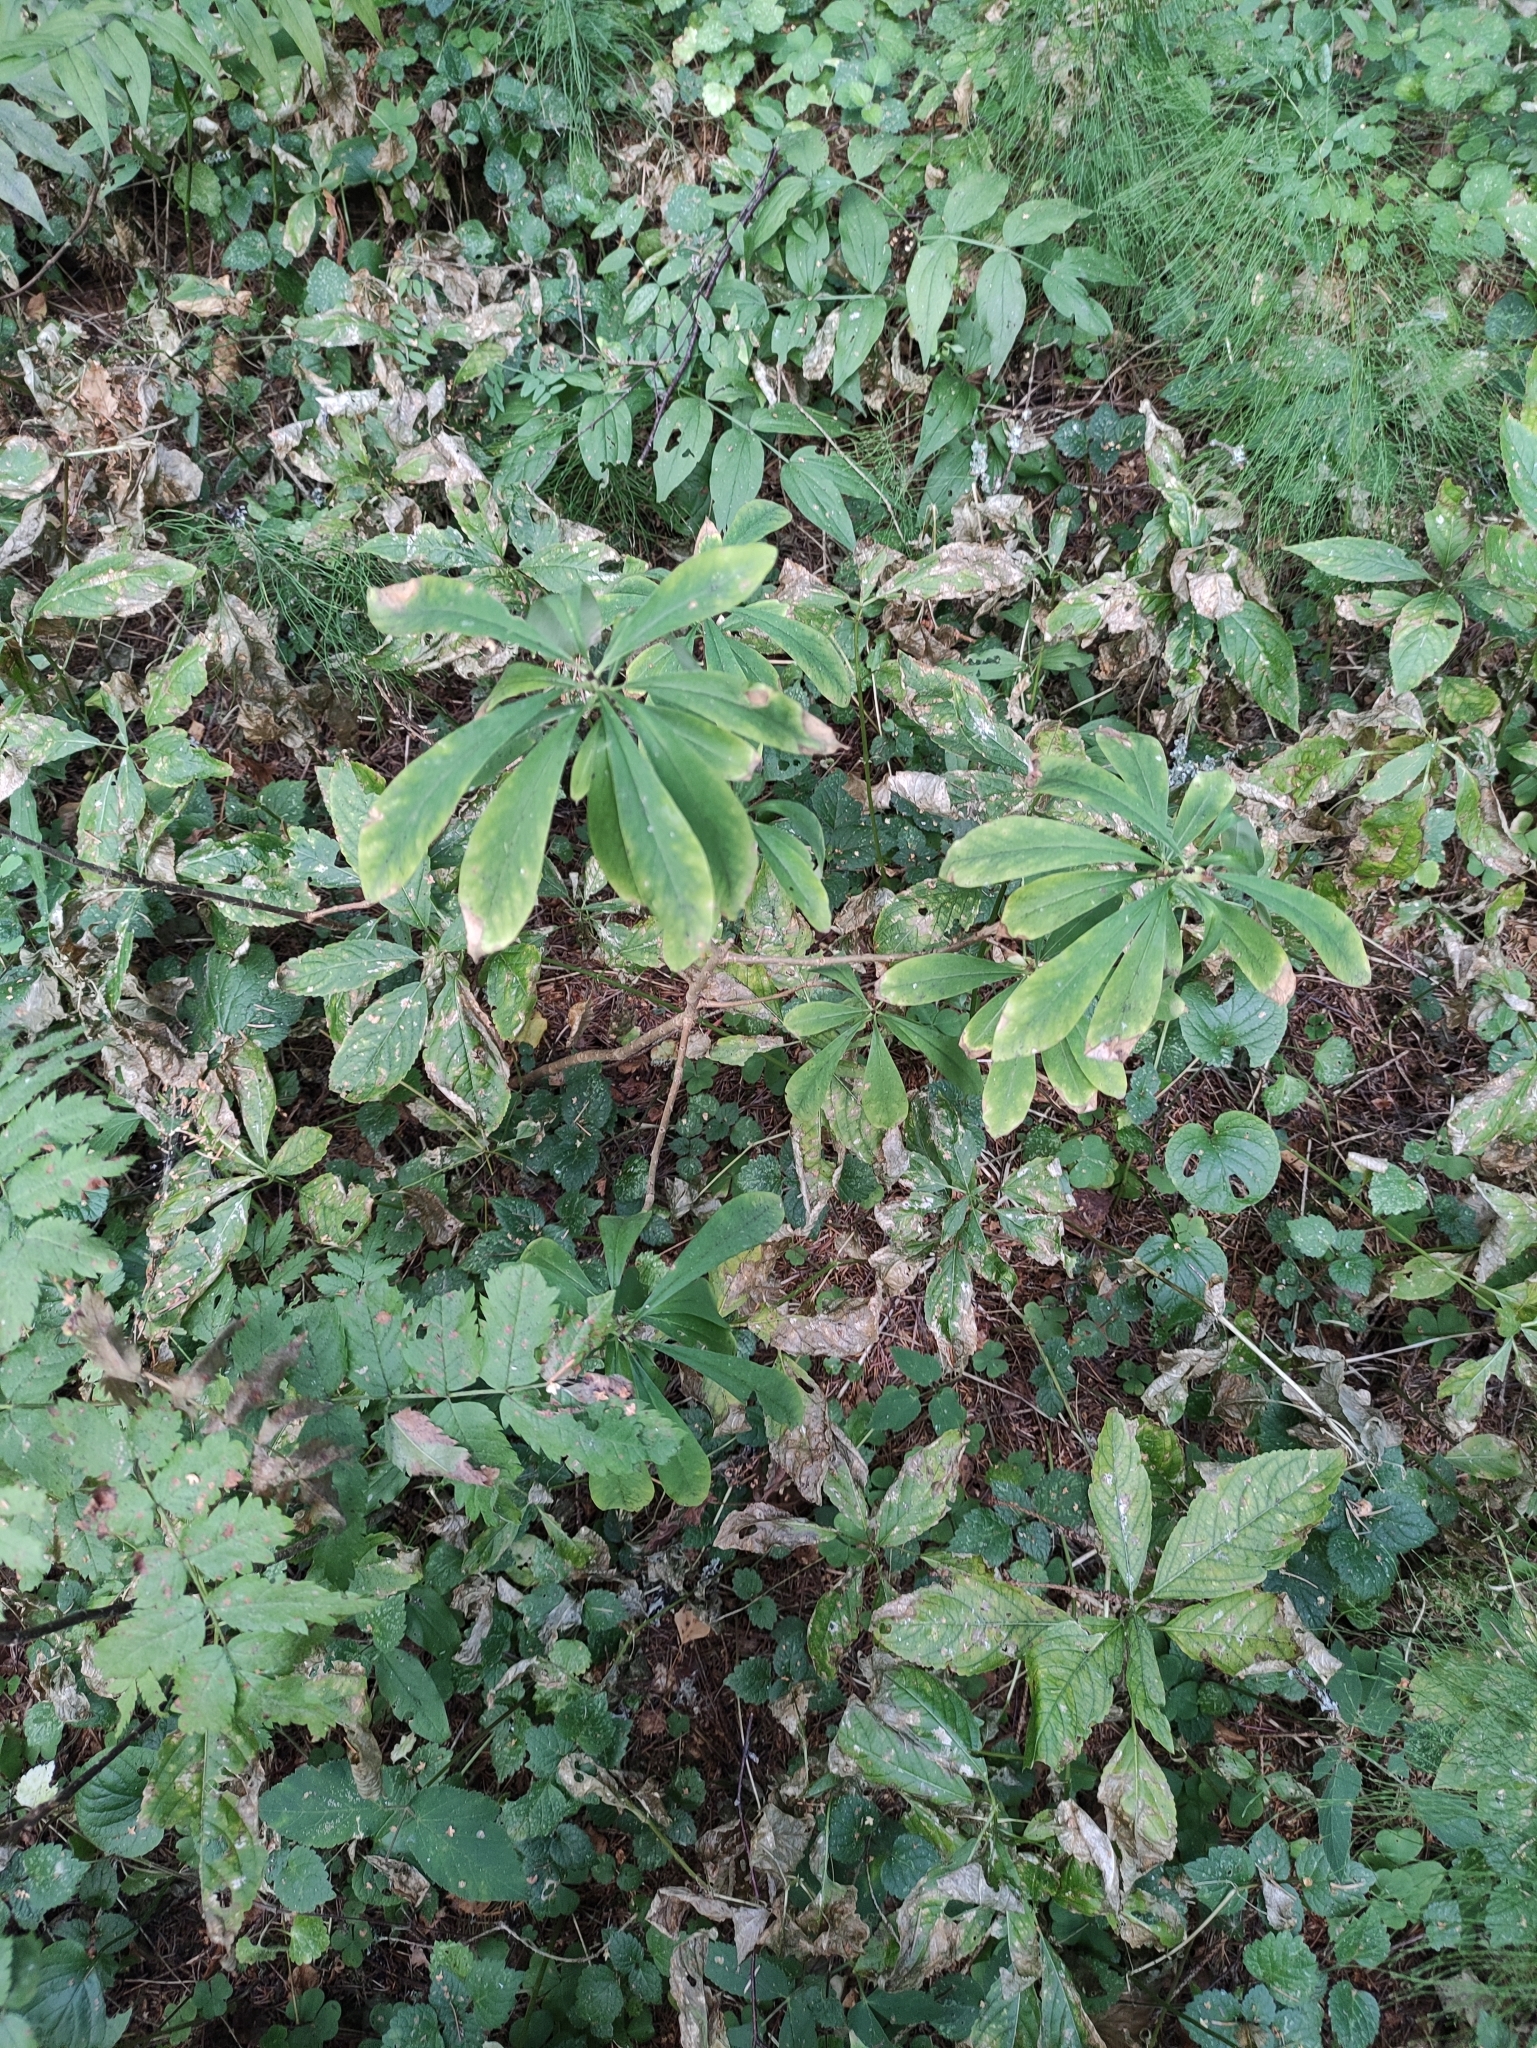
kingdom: Plantae
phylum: Tracheophyta
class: Magnoliopsida
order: Malvales
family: Thymelaeaceae
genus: Daphne
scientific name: Daphne mezereum
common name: Mezereon
